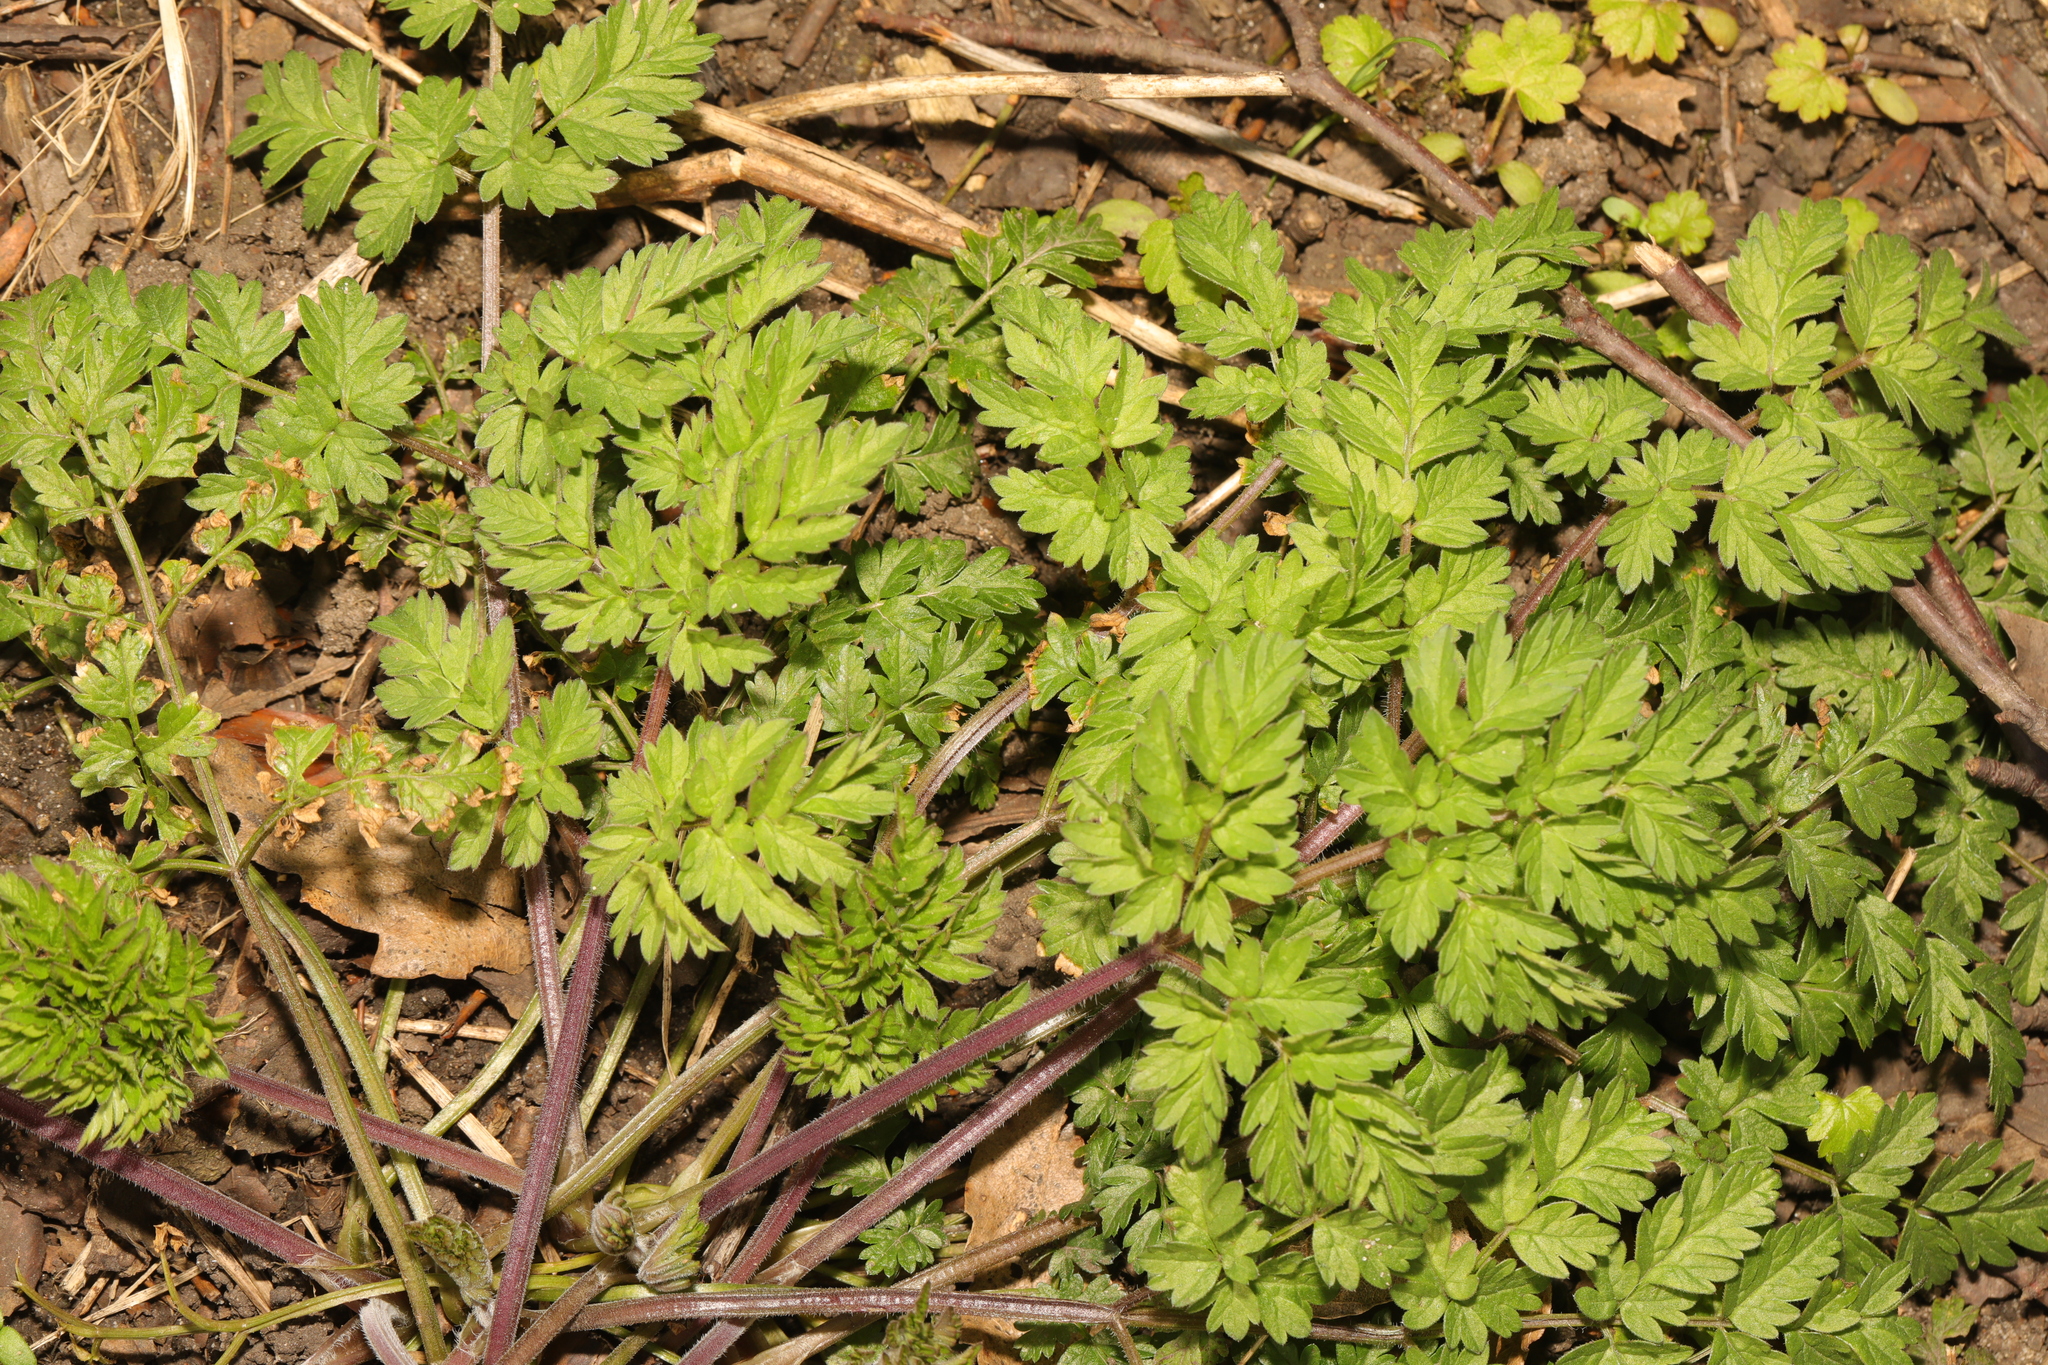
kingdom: Plantae
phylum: Tracheophyta
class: Magnoliopsida
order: Apiales
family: Apiaceae
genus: Anthriscus
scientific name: Anthriscus sylvestris
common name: Cow parsley
